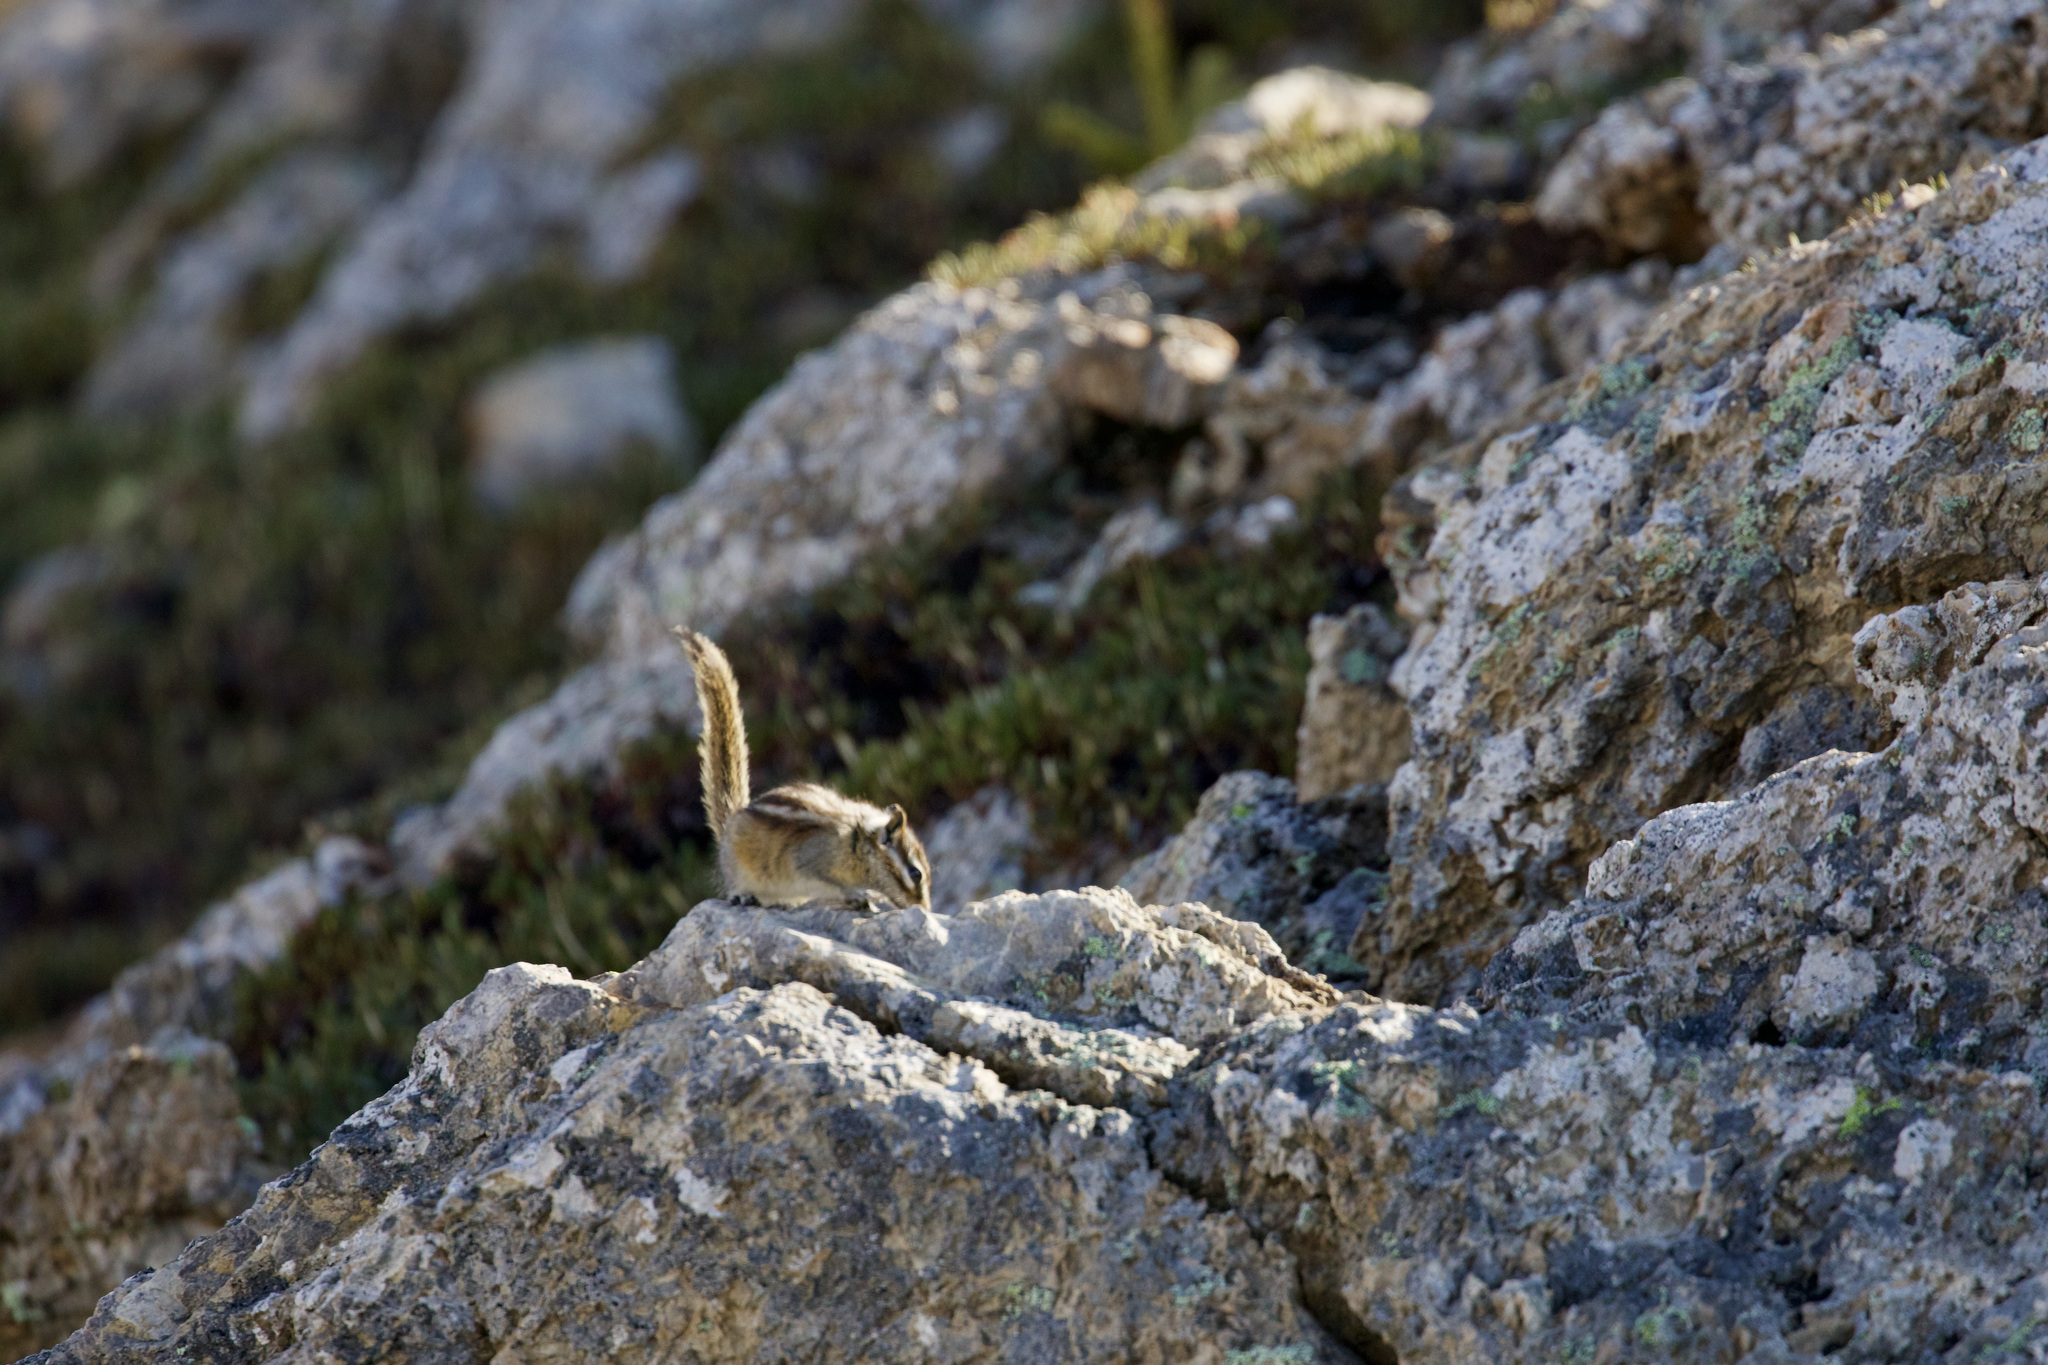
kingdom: Animalia
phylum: Chordata
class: Mammalia
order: Rodentia
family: Sciuridae
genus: Tamias
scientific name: Tamias minimus
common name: Least chipmunk
